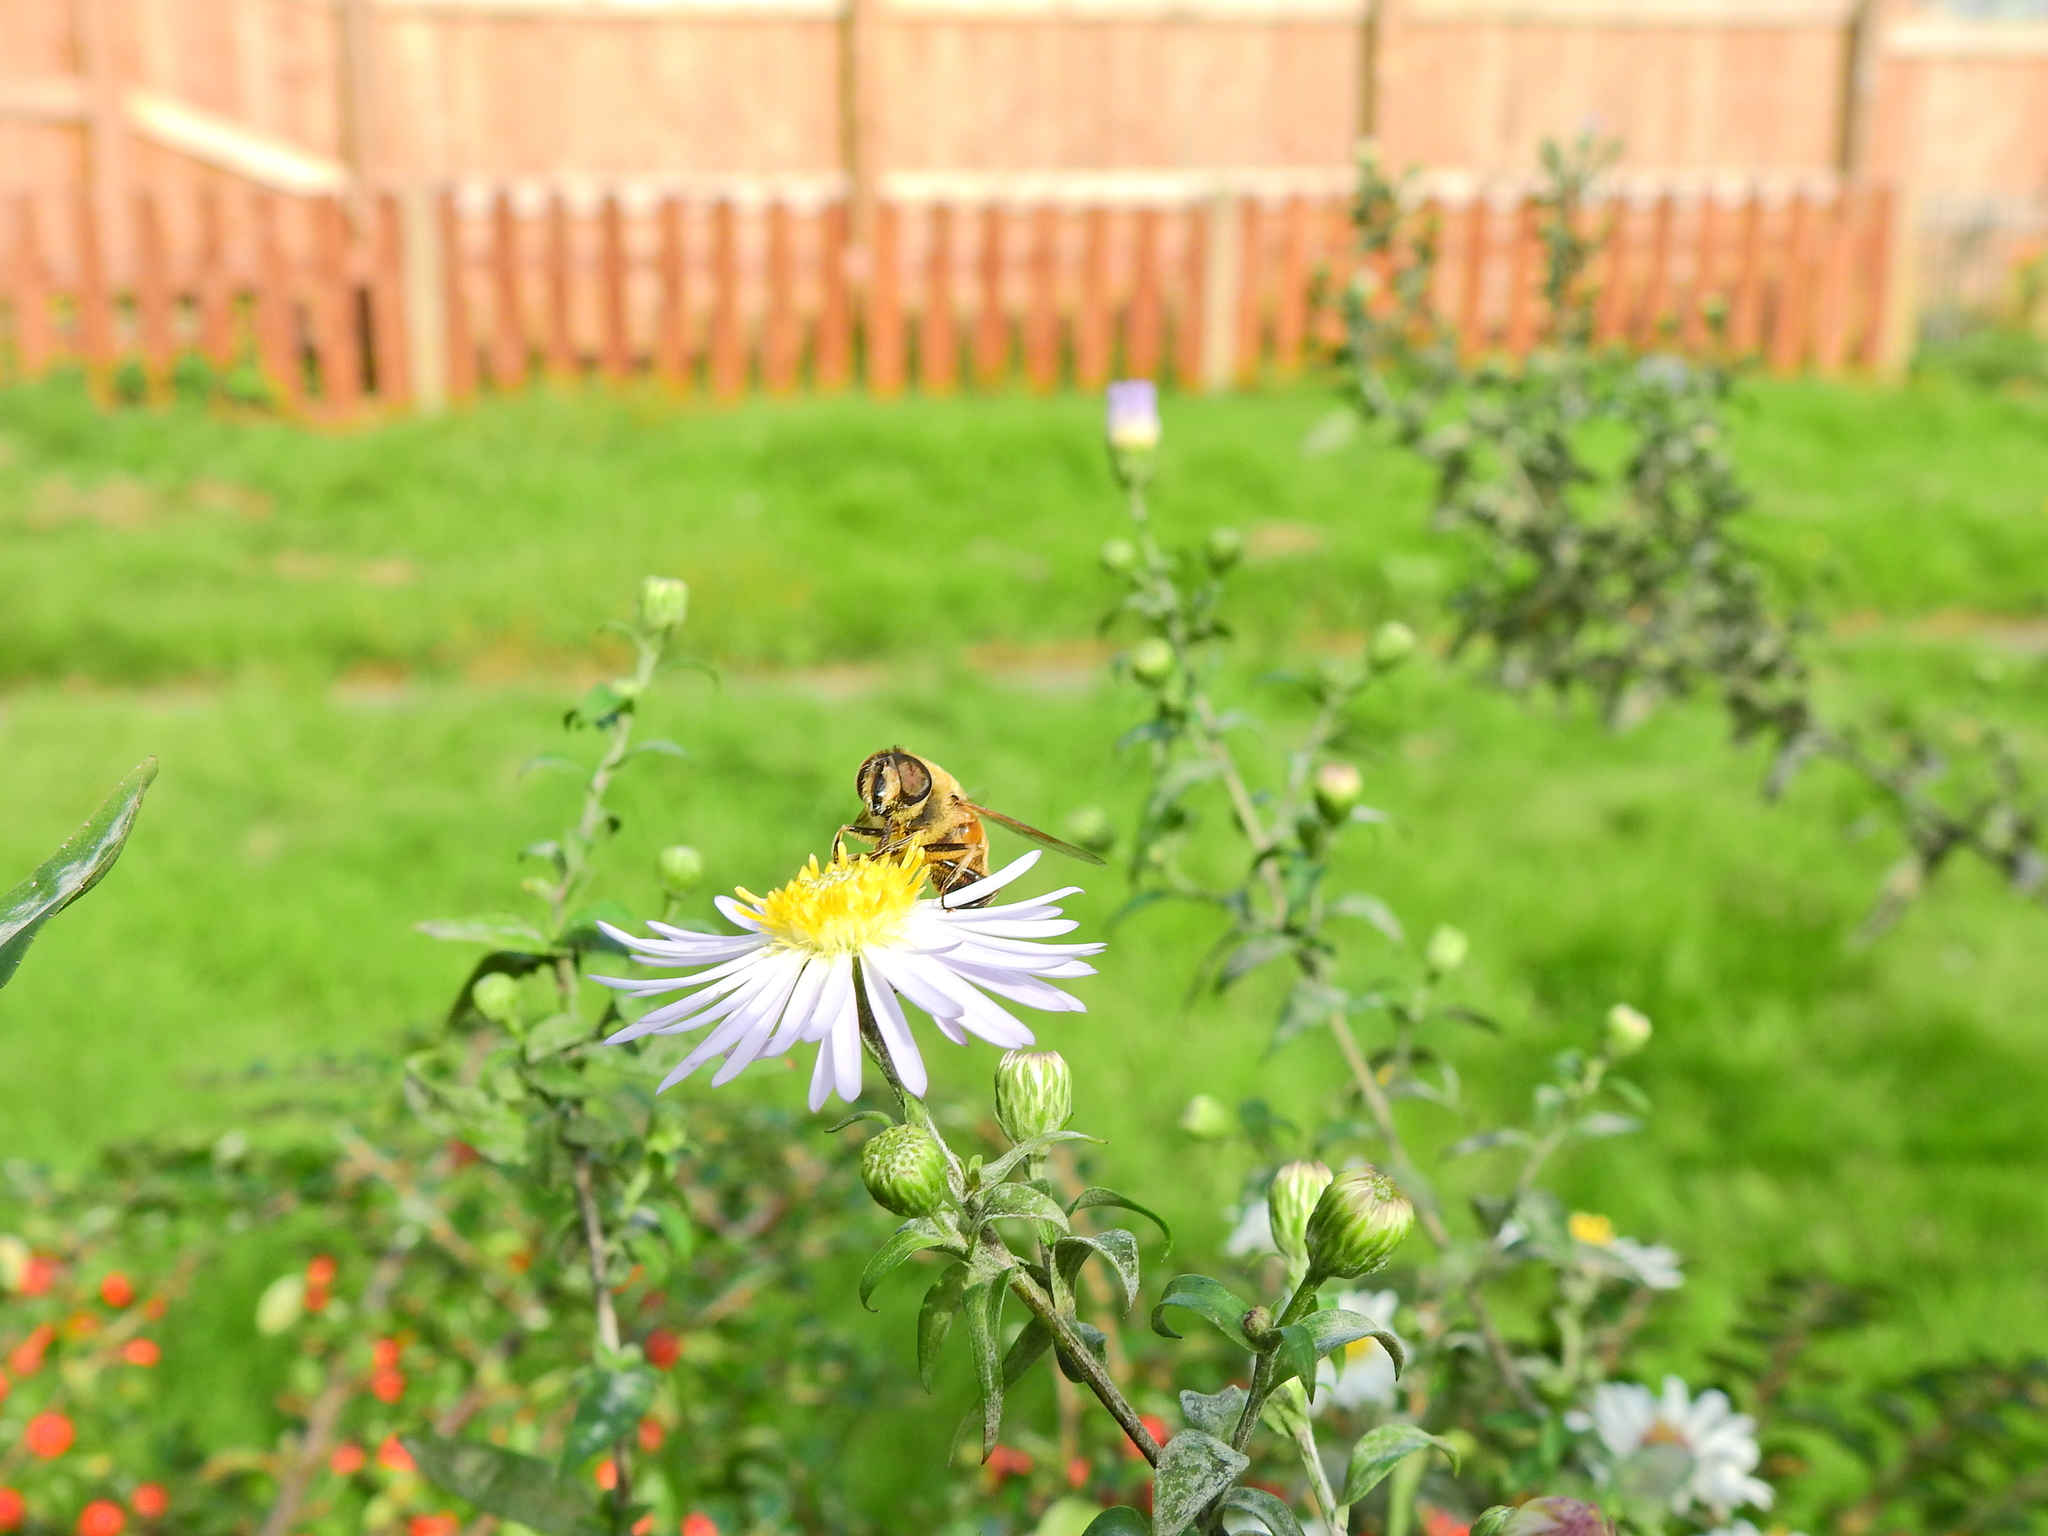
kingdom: Animalia
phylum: Arthropoda
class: Insecta
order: Diptera
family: Syrphidae
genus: Eristalis
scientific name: Eristalis tenax
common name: Drone fly
